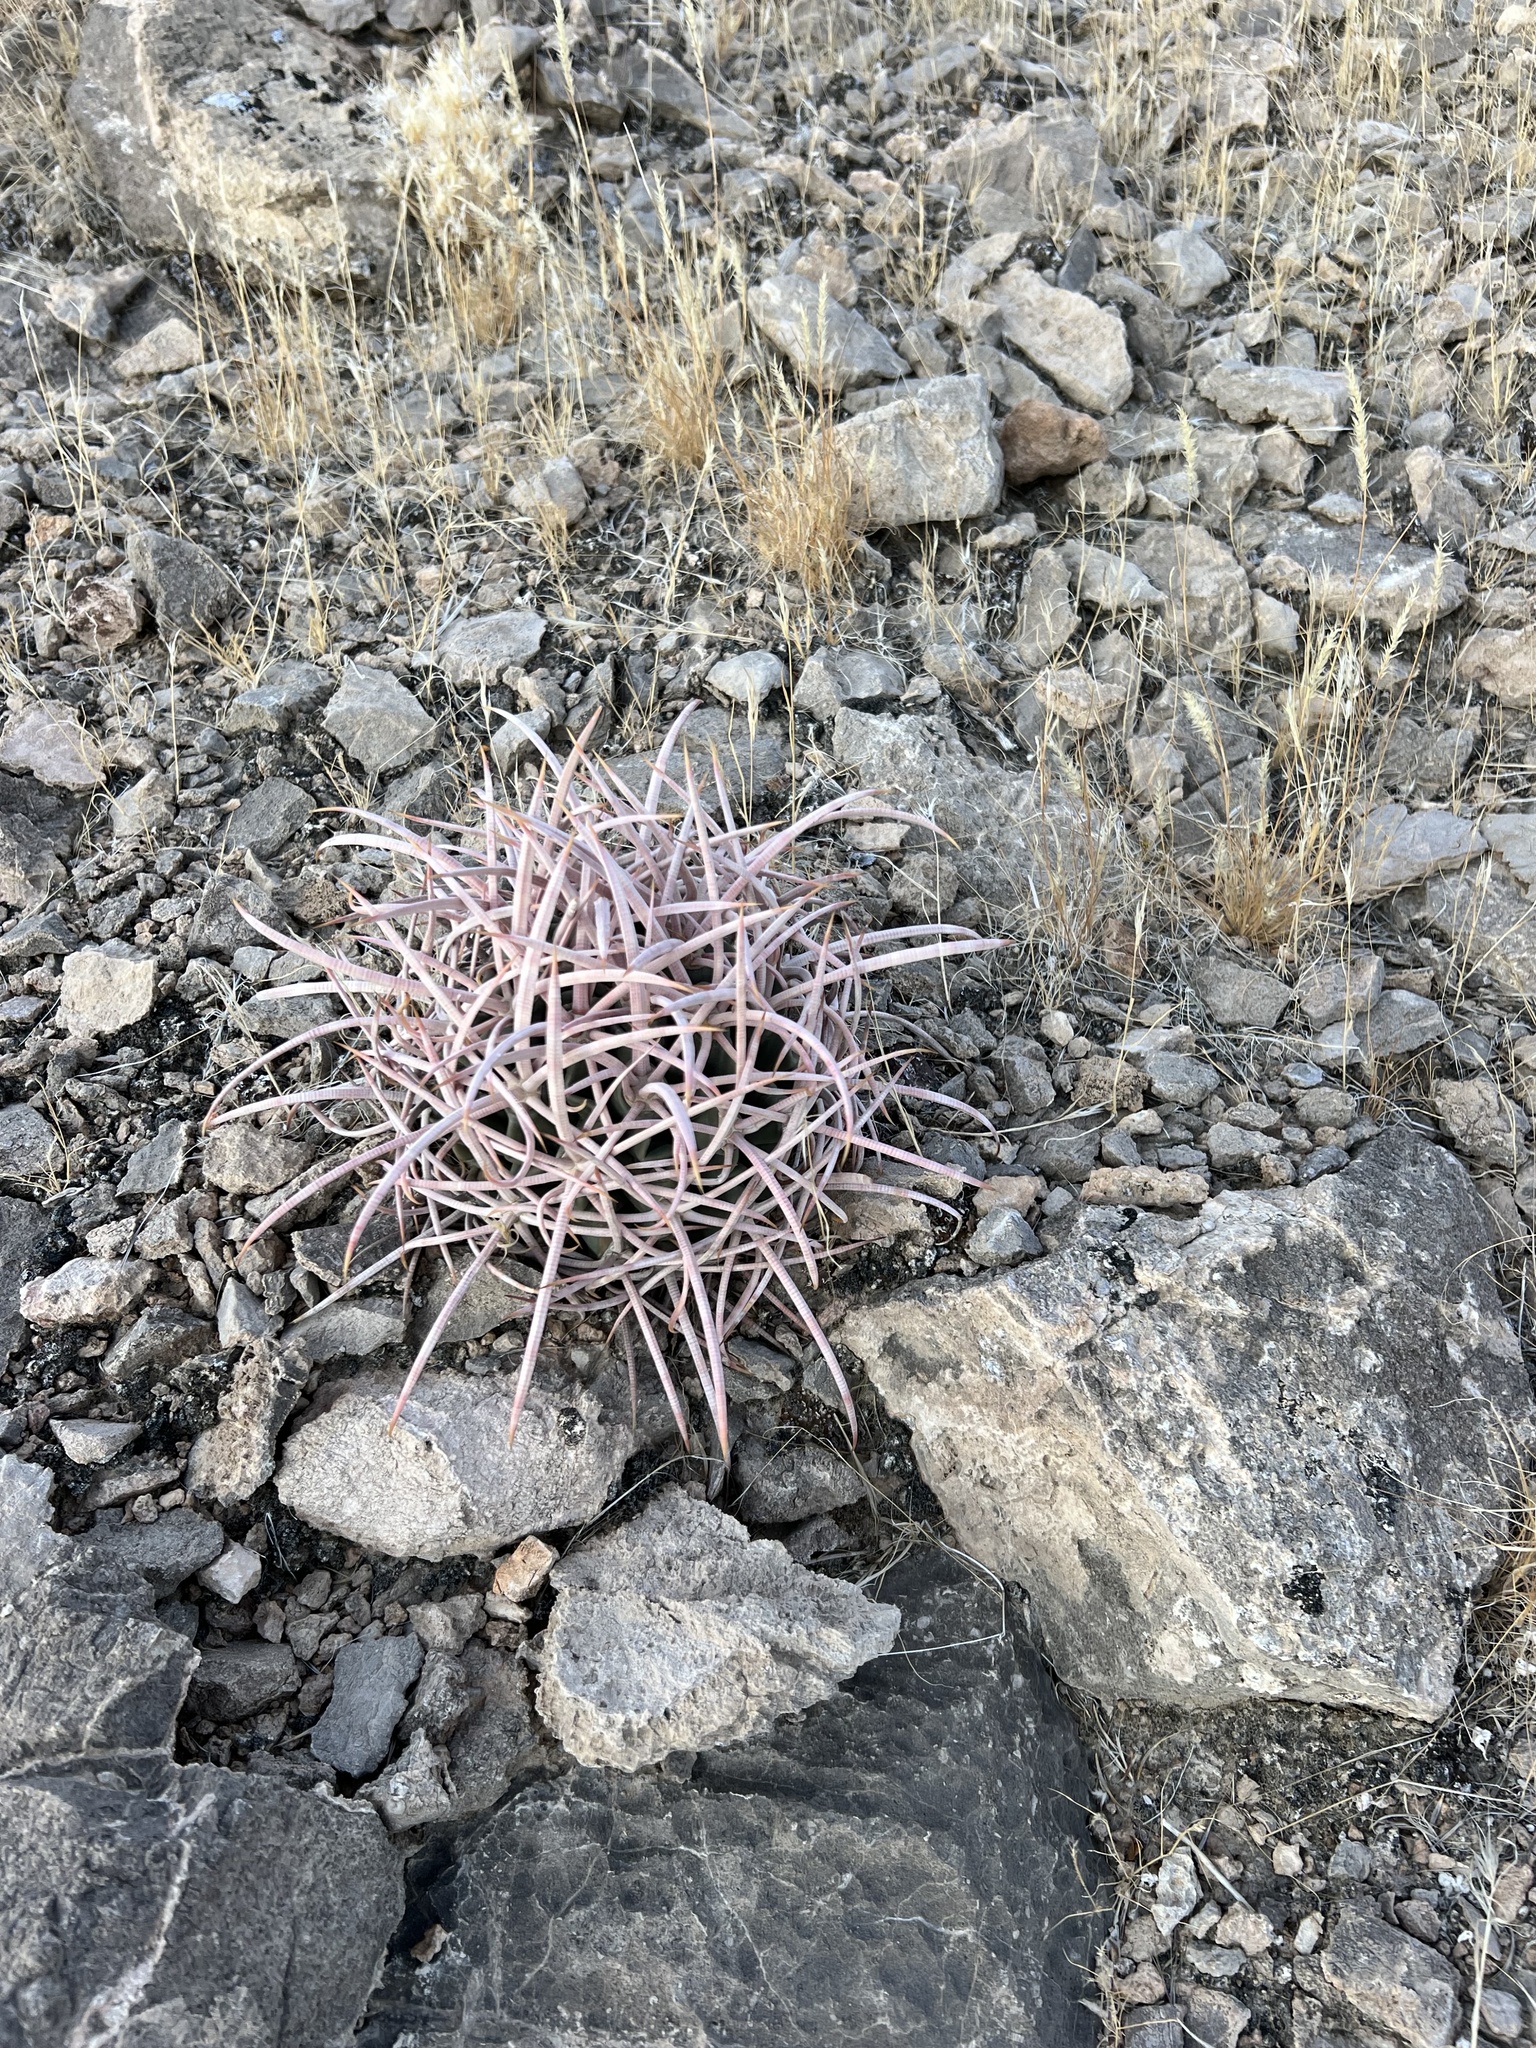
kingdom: Plantae
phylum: Tracheophyta
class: Magnoliopsida
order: Caryophyllales
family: Cactaceae
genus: Echinocactus
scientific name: Echinocactus polycephalus
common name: Cottontop cactus
